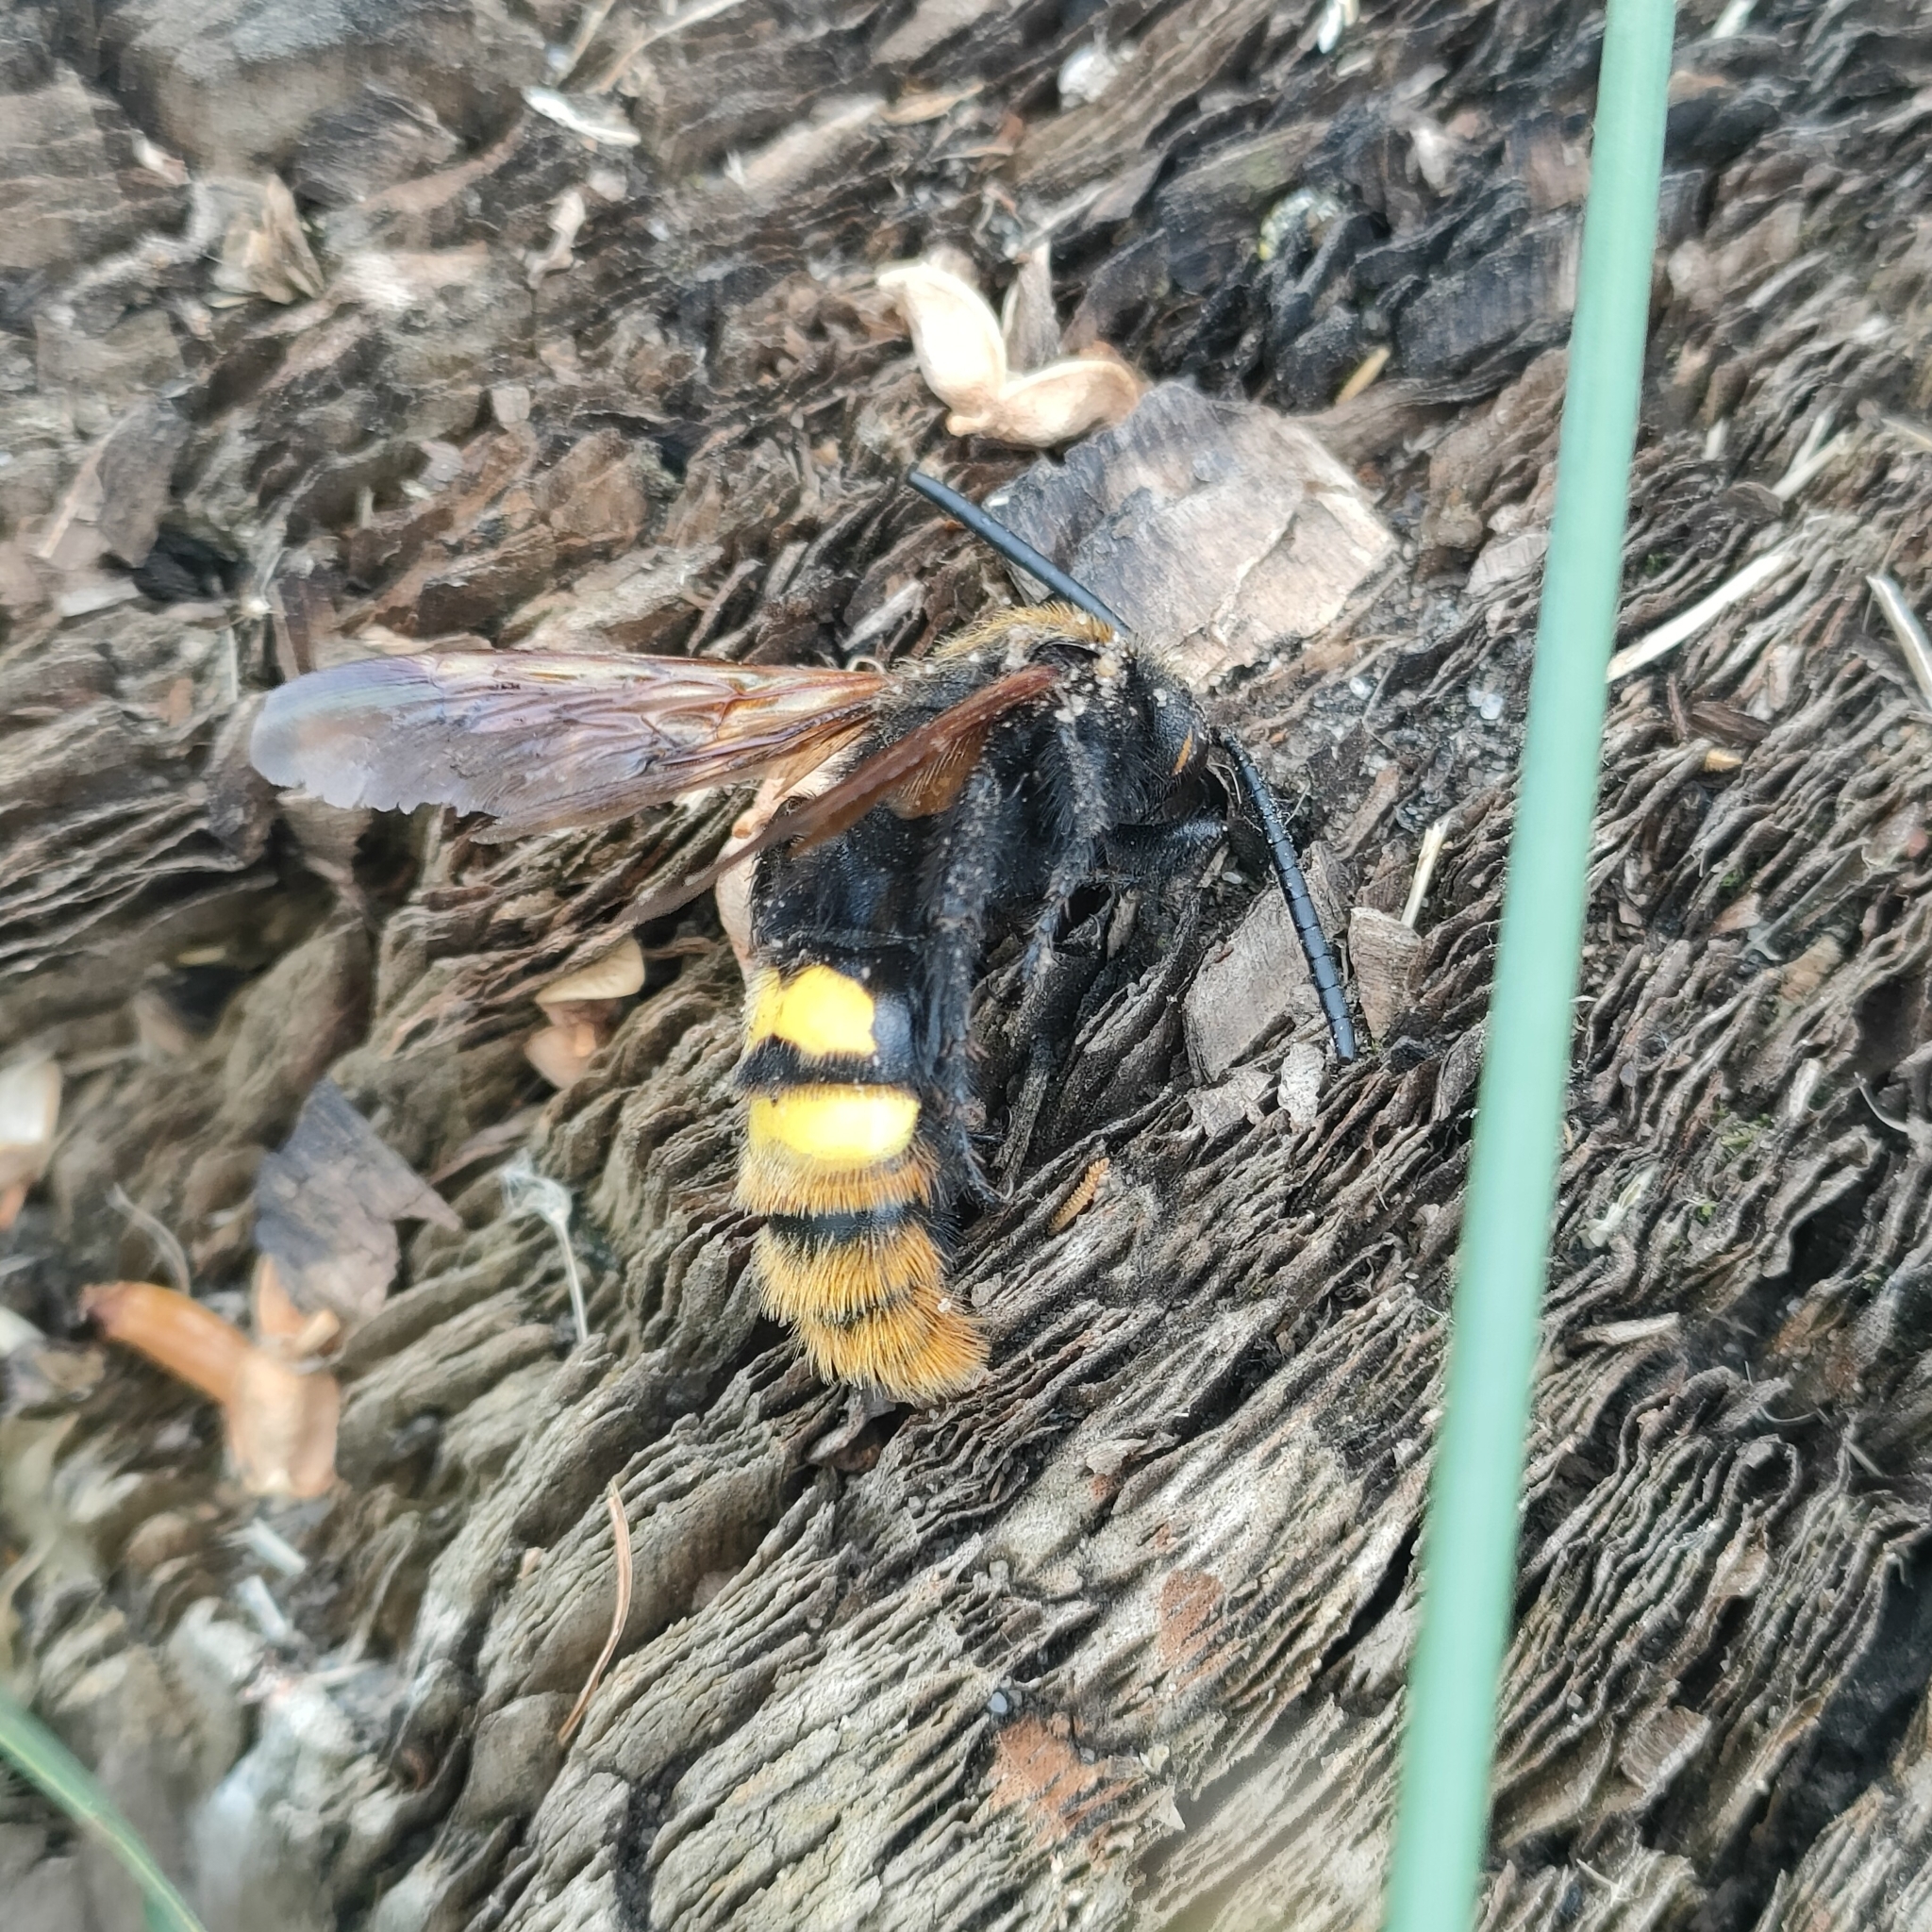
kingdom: Animalia
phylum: Arthropoda
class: Insecta
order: Hymenoptera
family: Scoliidae
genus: Megascolia
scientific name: Megascolia maculata
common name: Mammoth wasp
